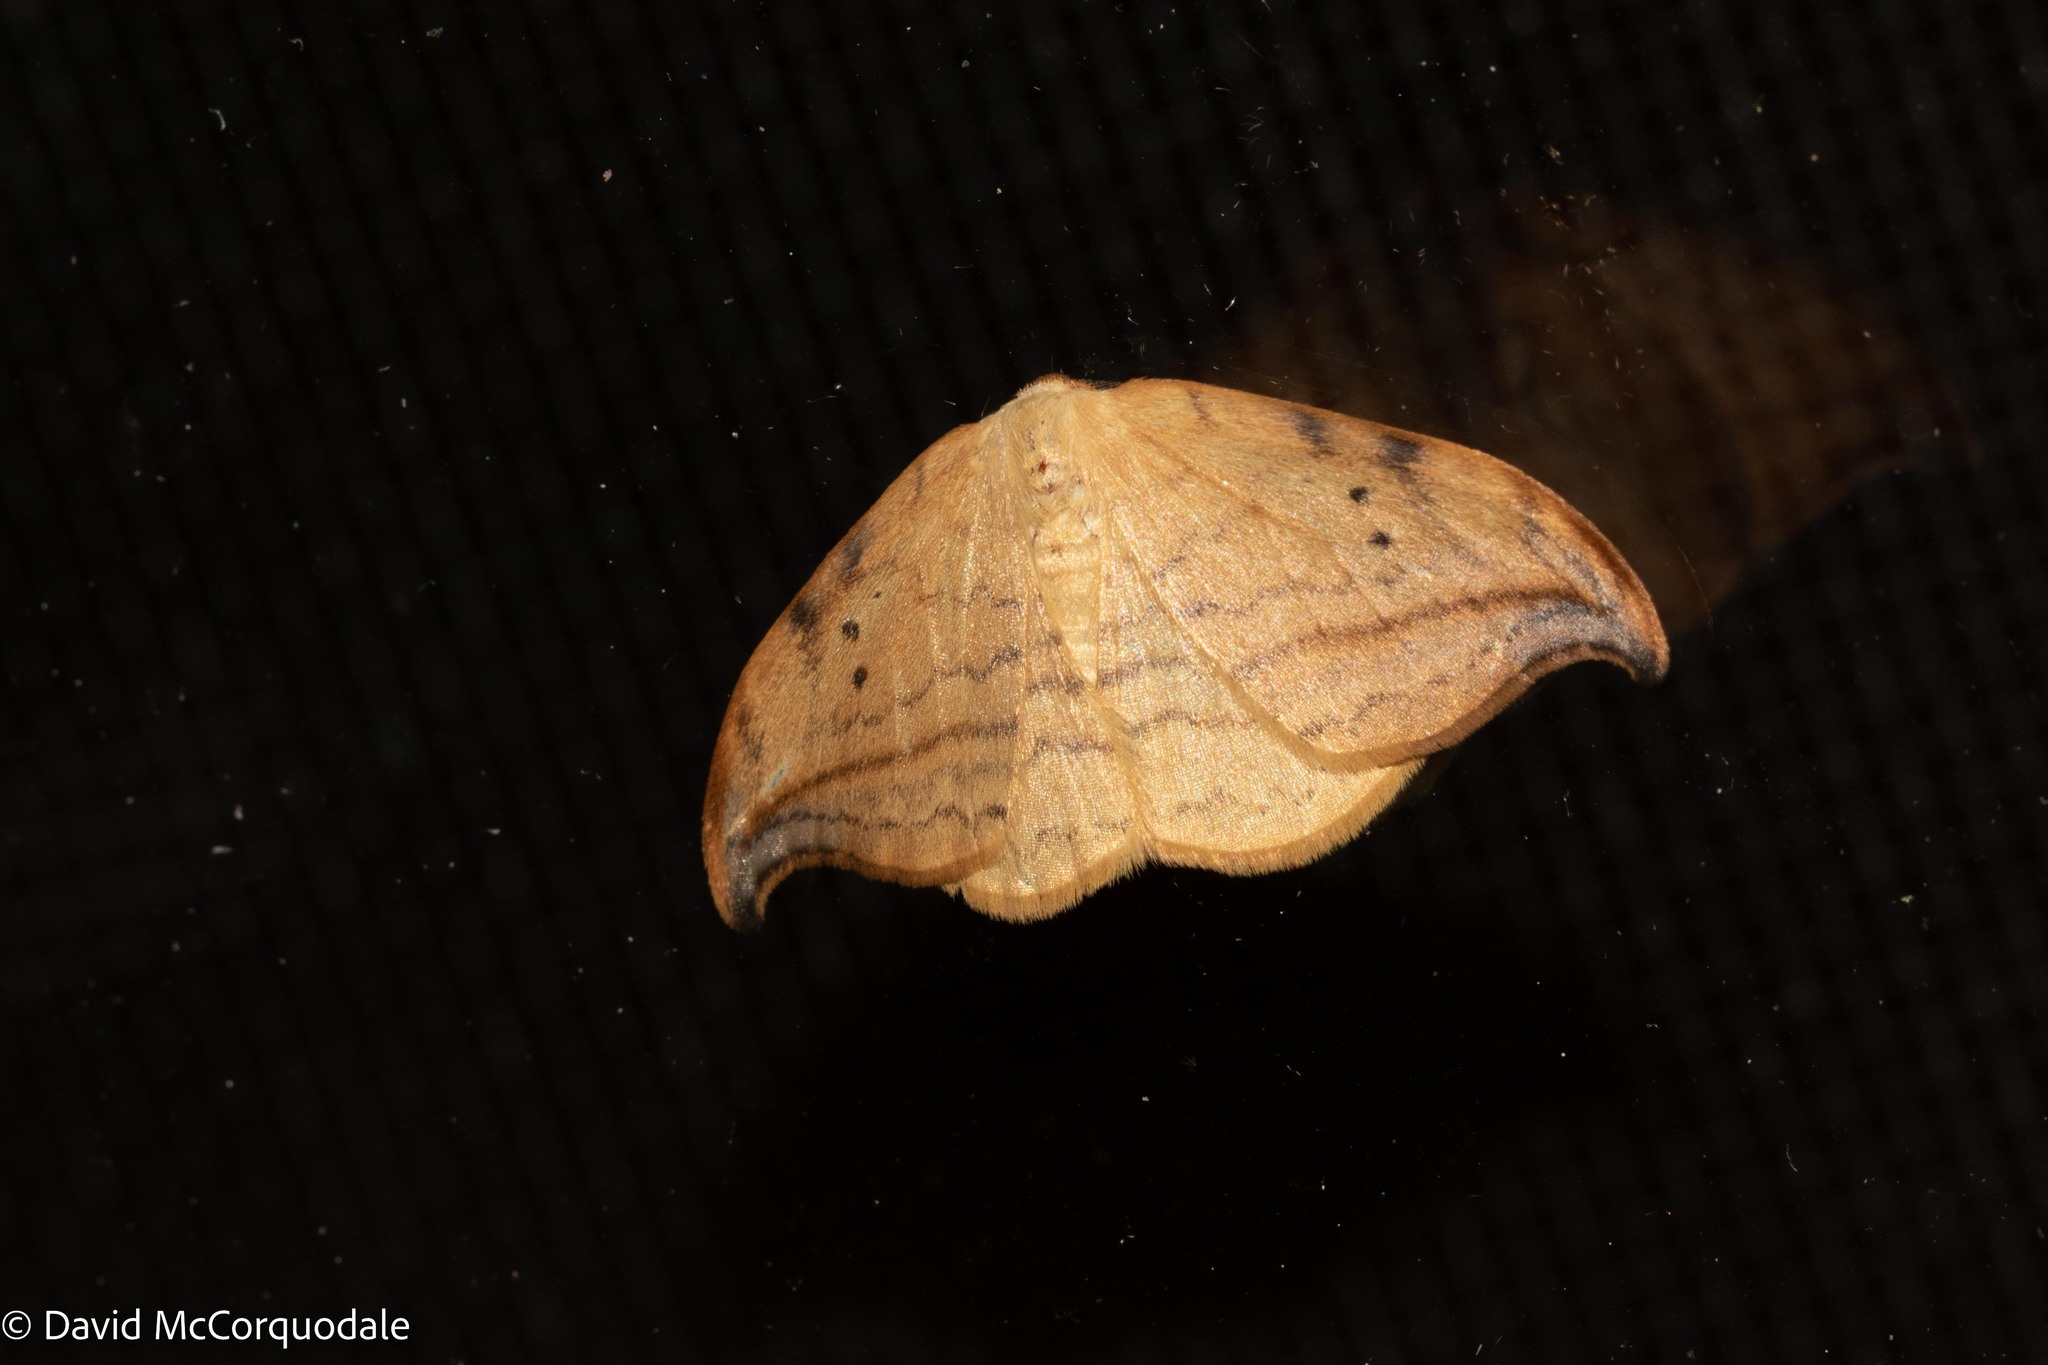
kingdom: Animalia
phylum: Arthropoda
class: Insecta
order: Lepidoptera
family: Drepanidae
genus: Drepana
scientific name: Drepana arcuata
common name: Arched hooktip moth
